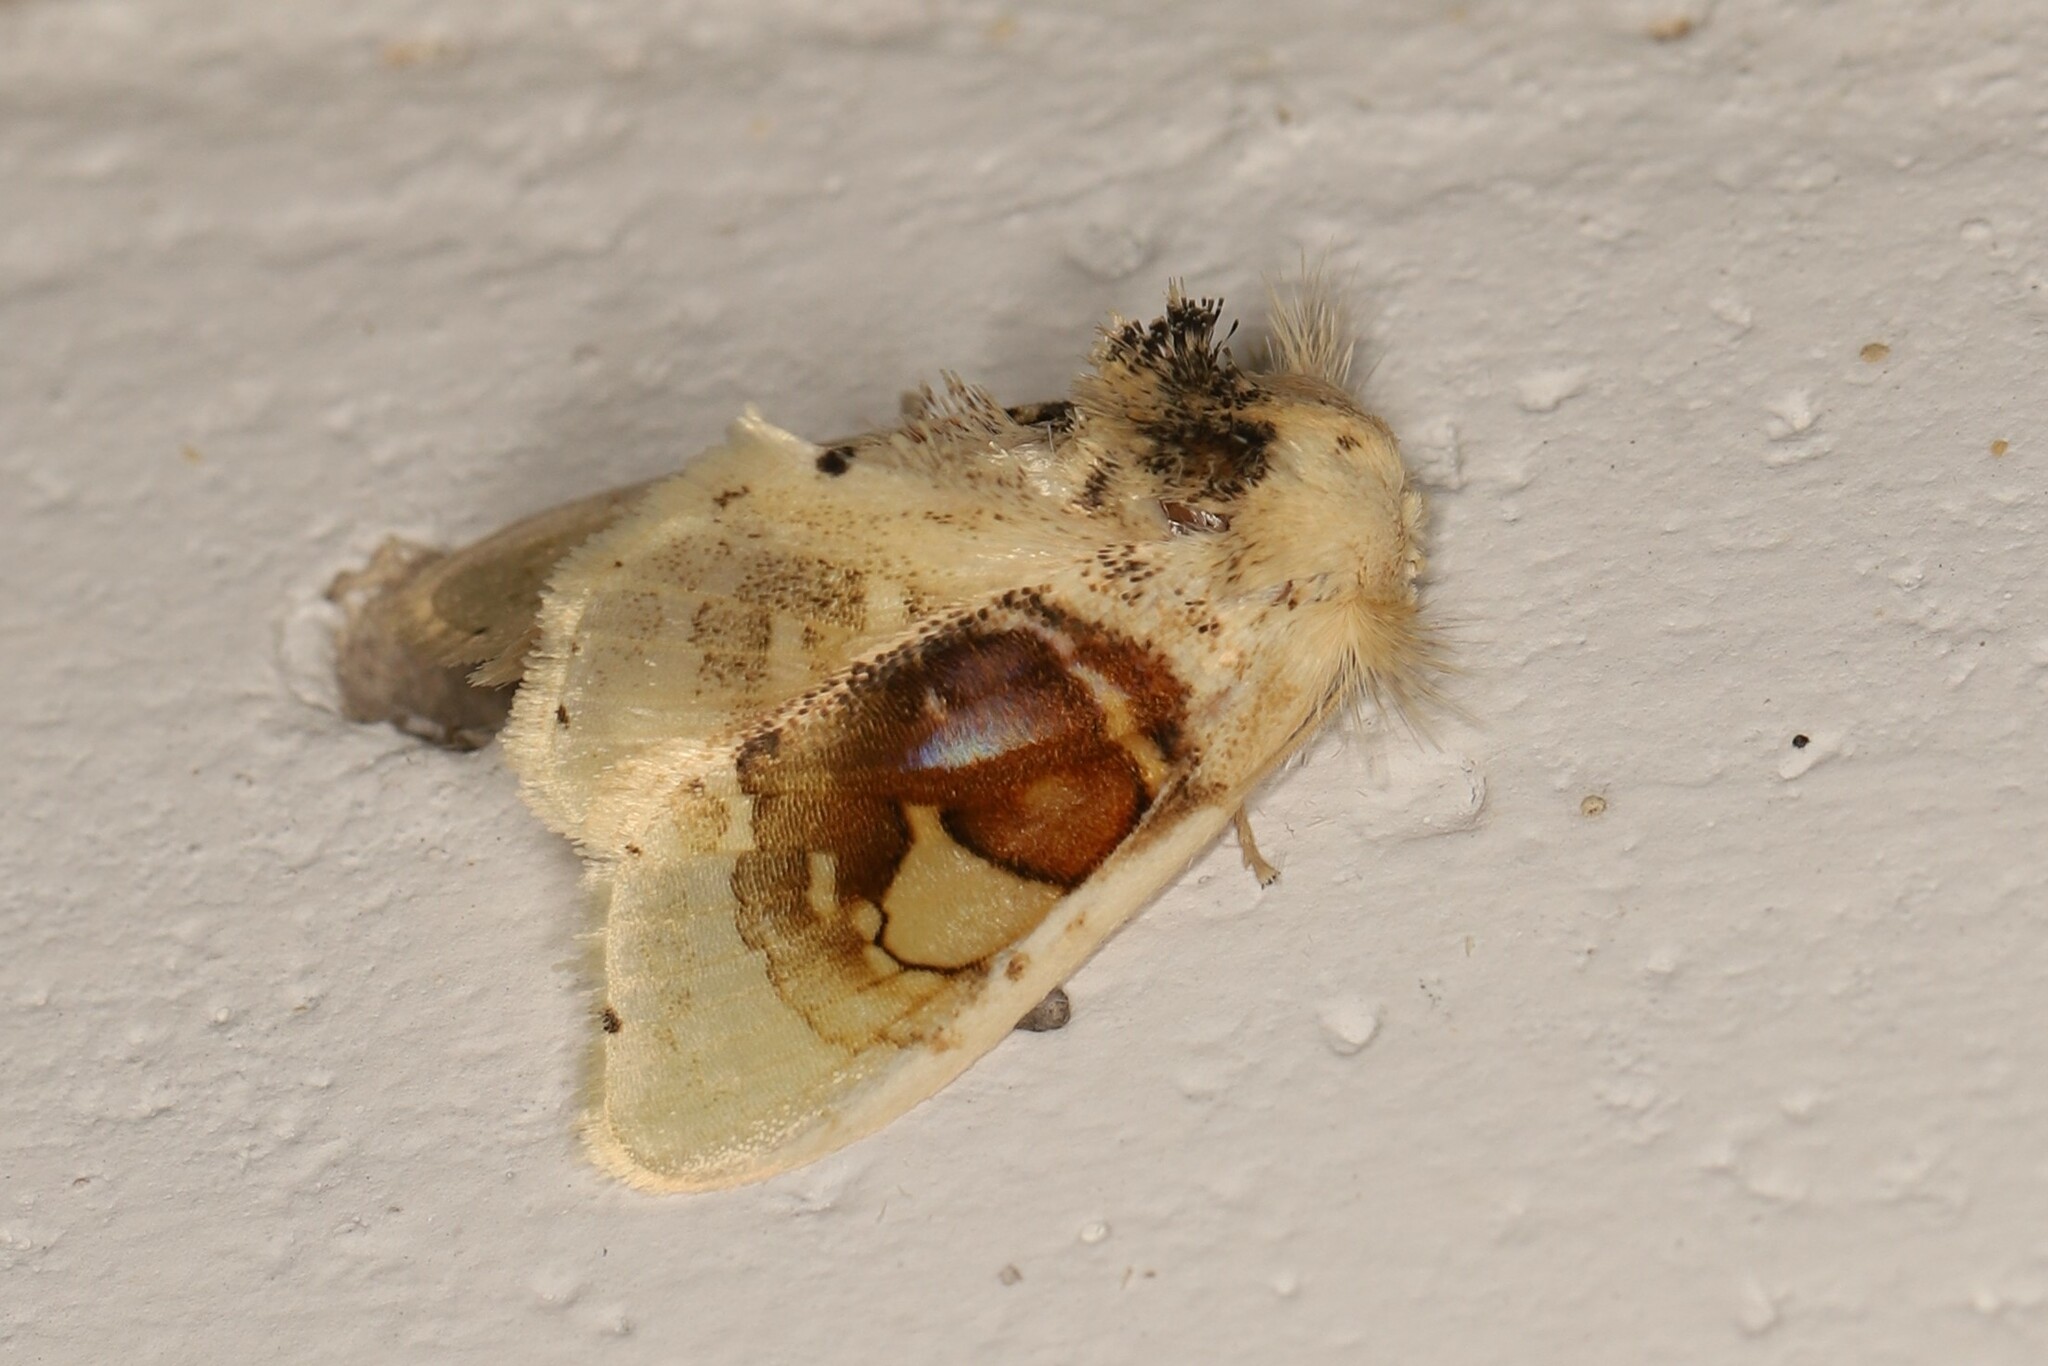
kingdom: Animalia
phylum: Arthropoda
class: Insecta
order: Lepidoptera
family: Psychidae
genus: Arrhenophanes
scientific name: Arrhenophanes perspicilla
